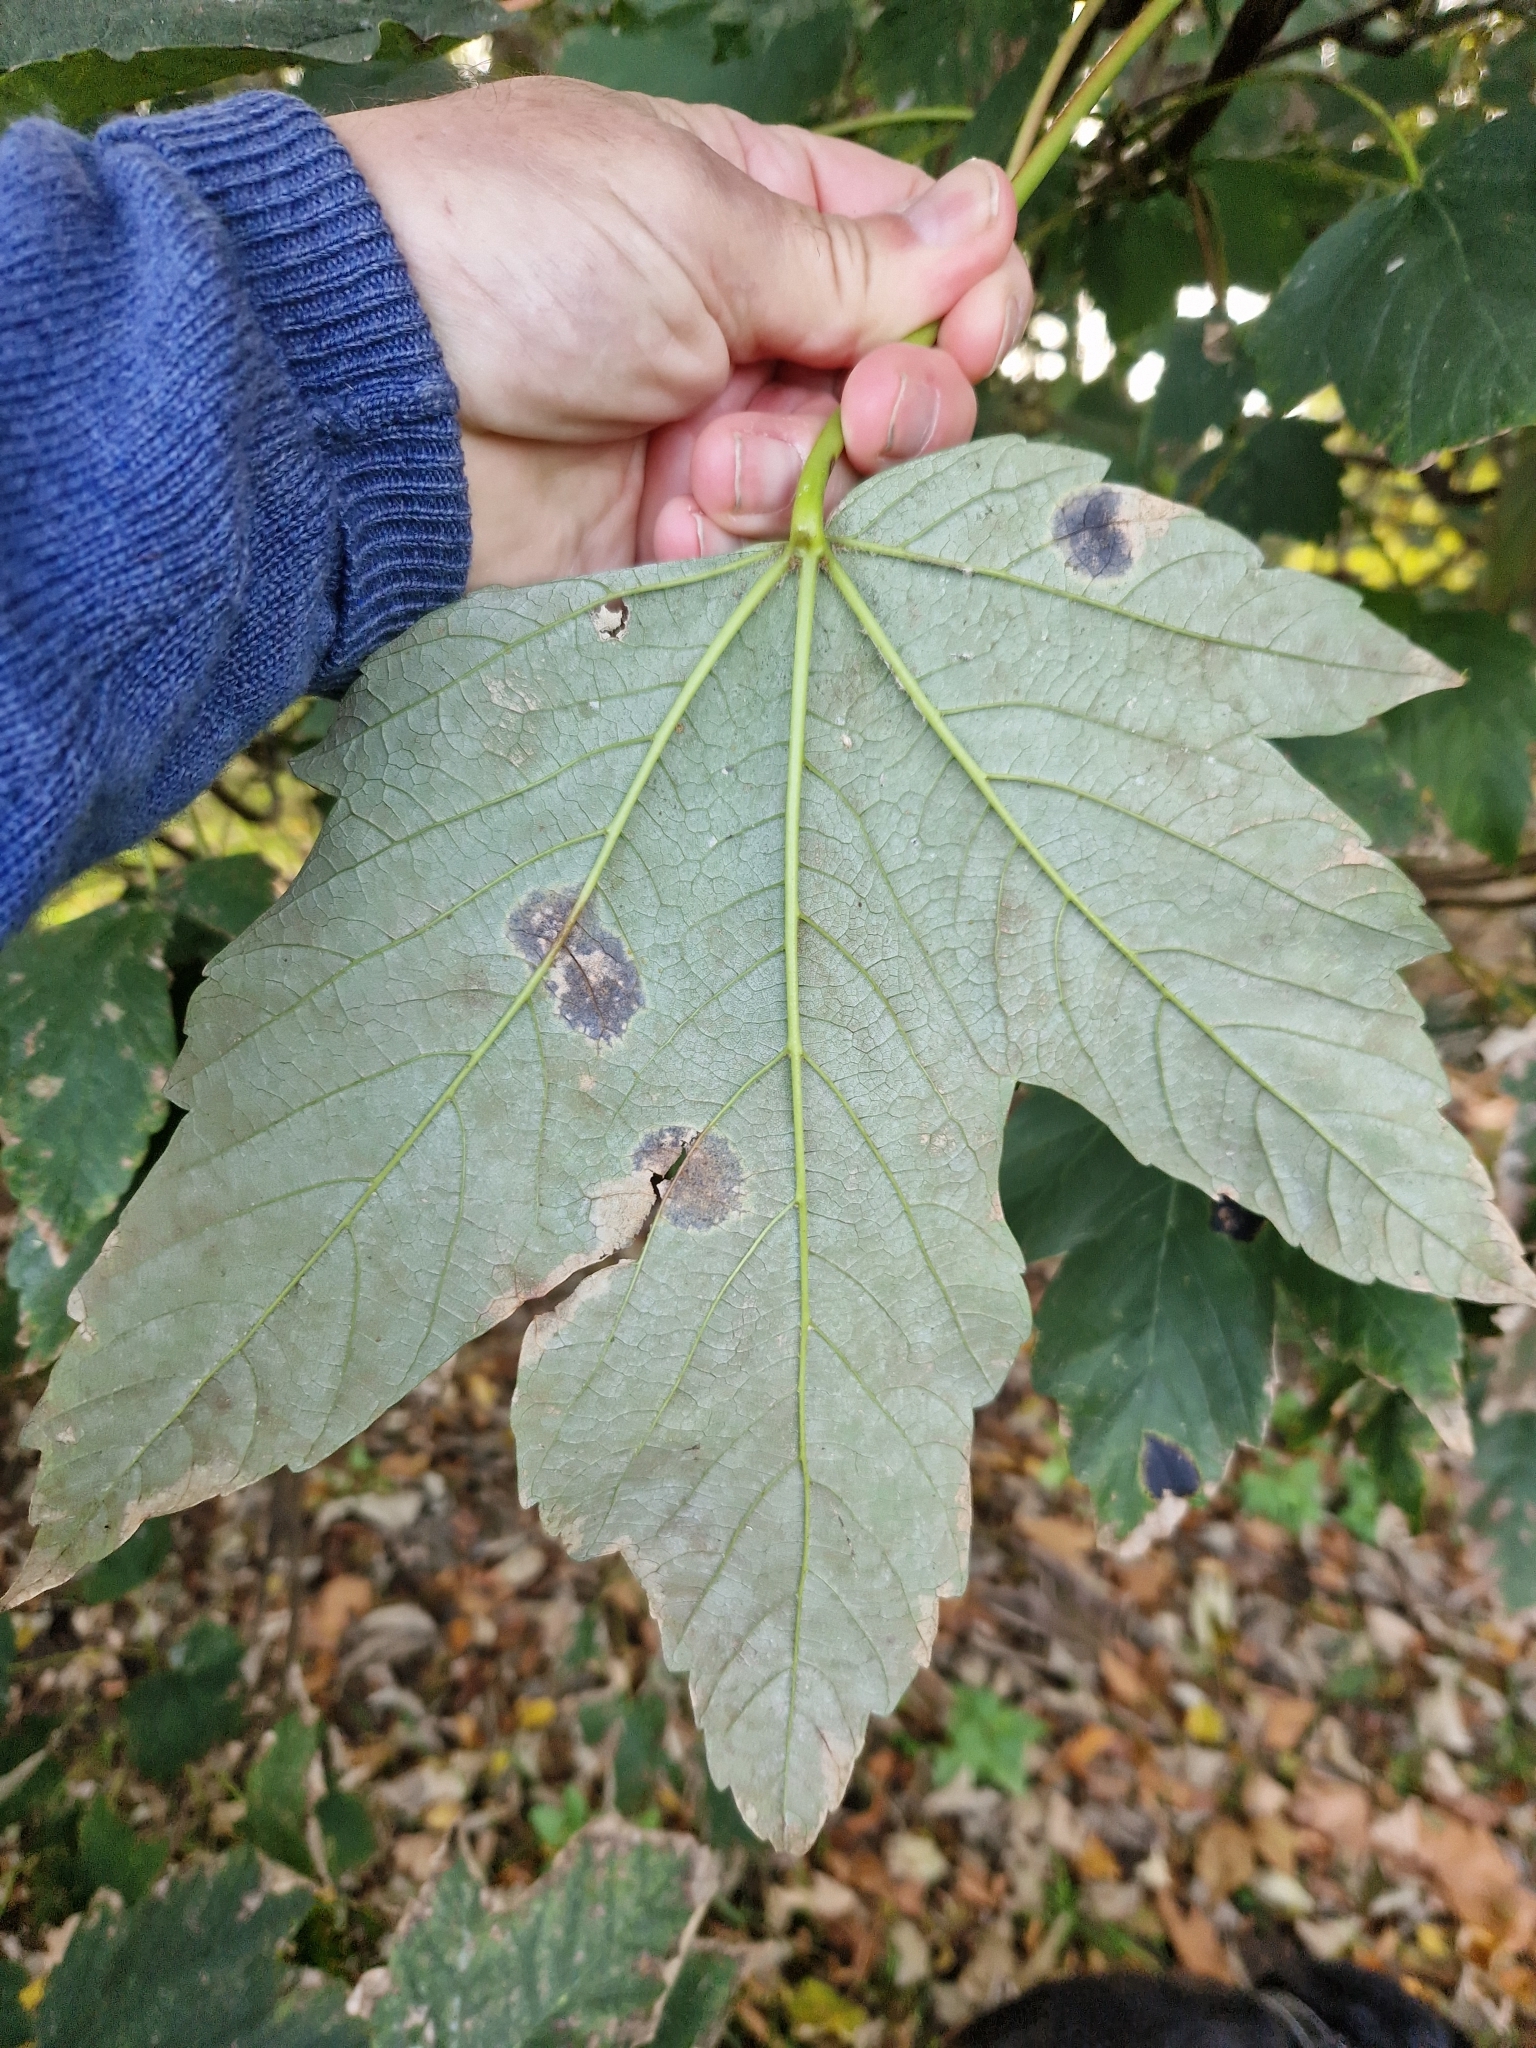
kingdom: Fungi
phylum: Ascomycota
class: Leotiomycetes
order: Rhytismatales
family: Rhytismataceae
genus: Rhytisma
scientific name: Rhytisma acerinum
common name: European tar spot
